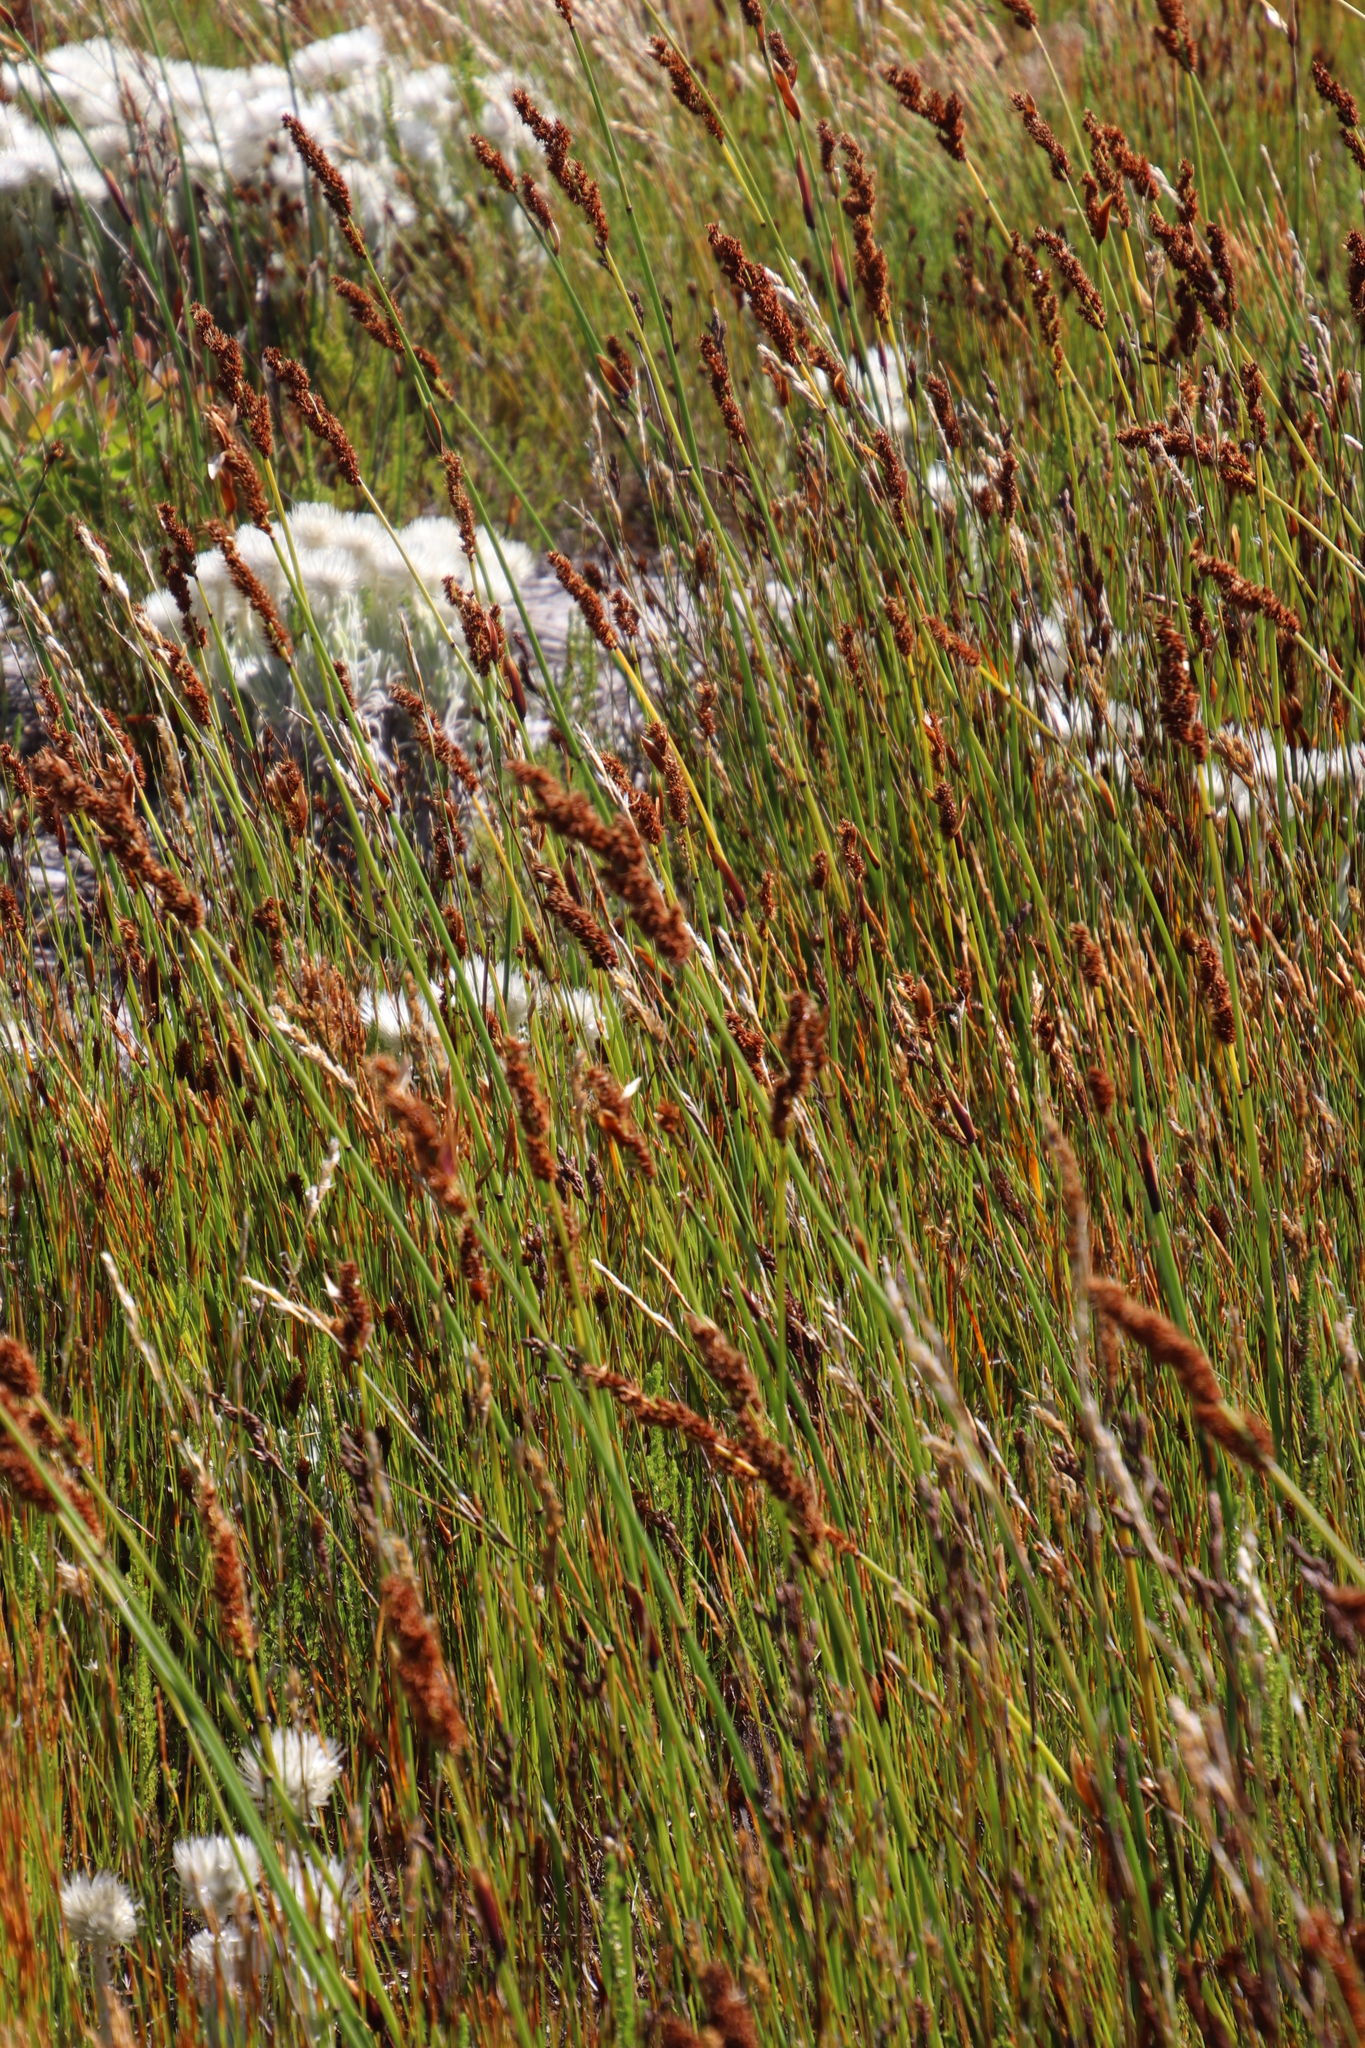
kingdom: Plantae
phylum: Tracheophyta
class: Liliopsida
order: Poales
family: Restionaceae
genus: Elegia
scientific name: Elegia cuspidata
